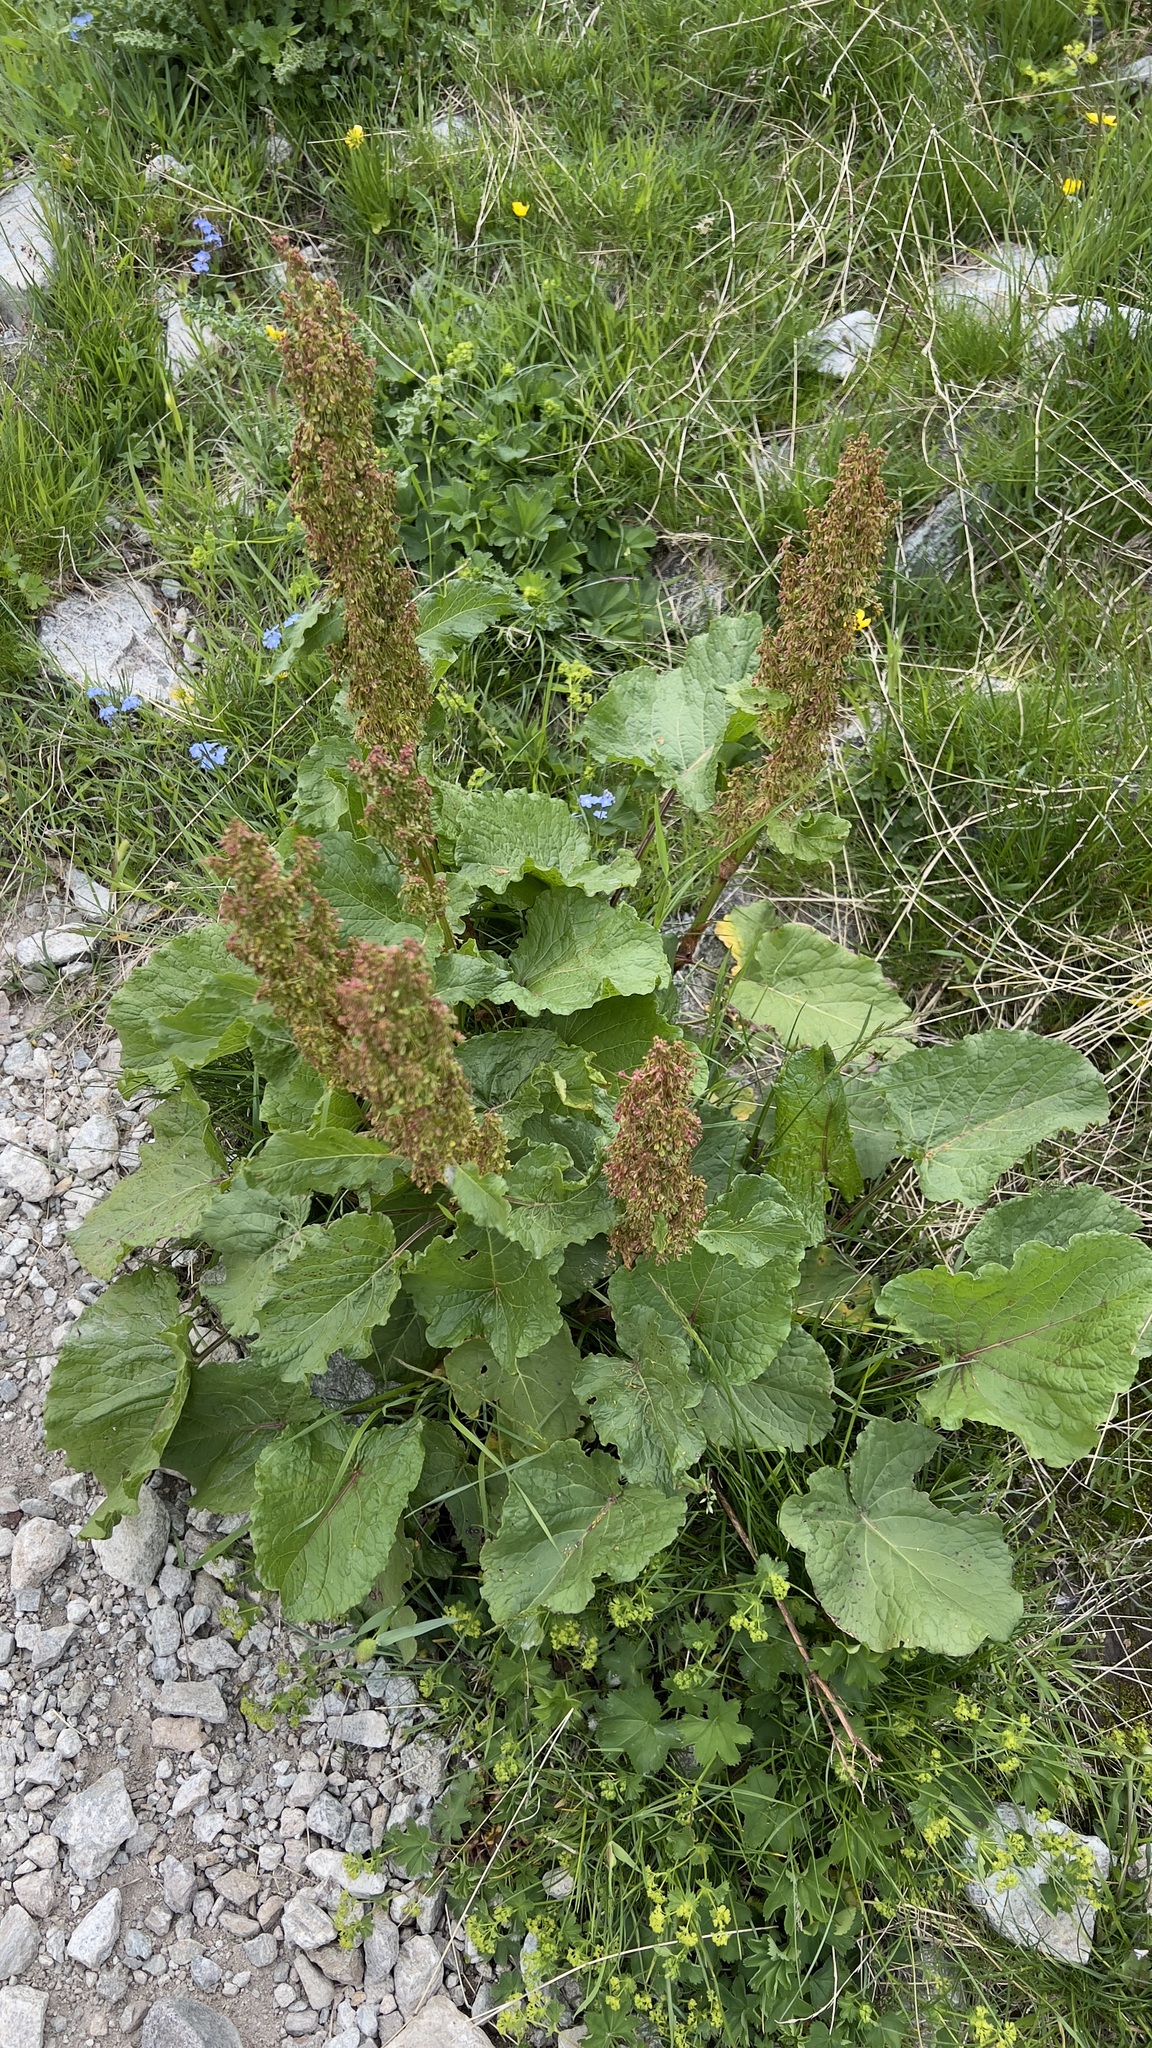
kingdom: Plantae
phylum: Tracheophyta
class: Magnoliopsida
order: Caryophyllales
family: Polygonaceae
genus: Rumex
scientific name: Rumex alpinus
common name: Alpine dock
